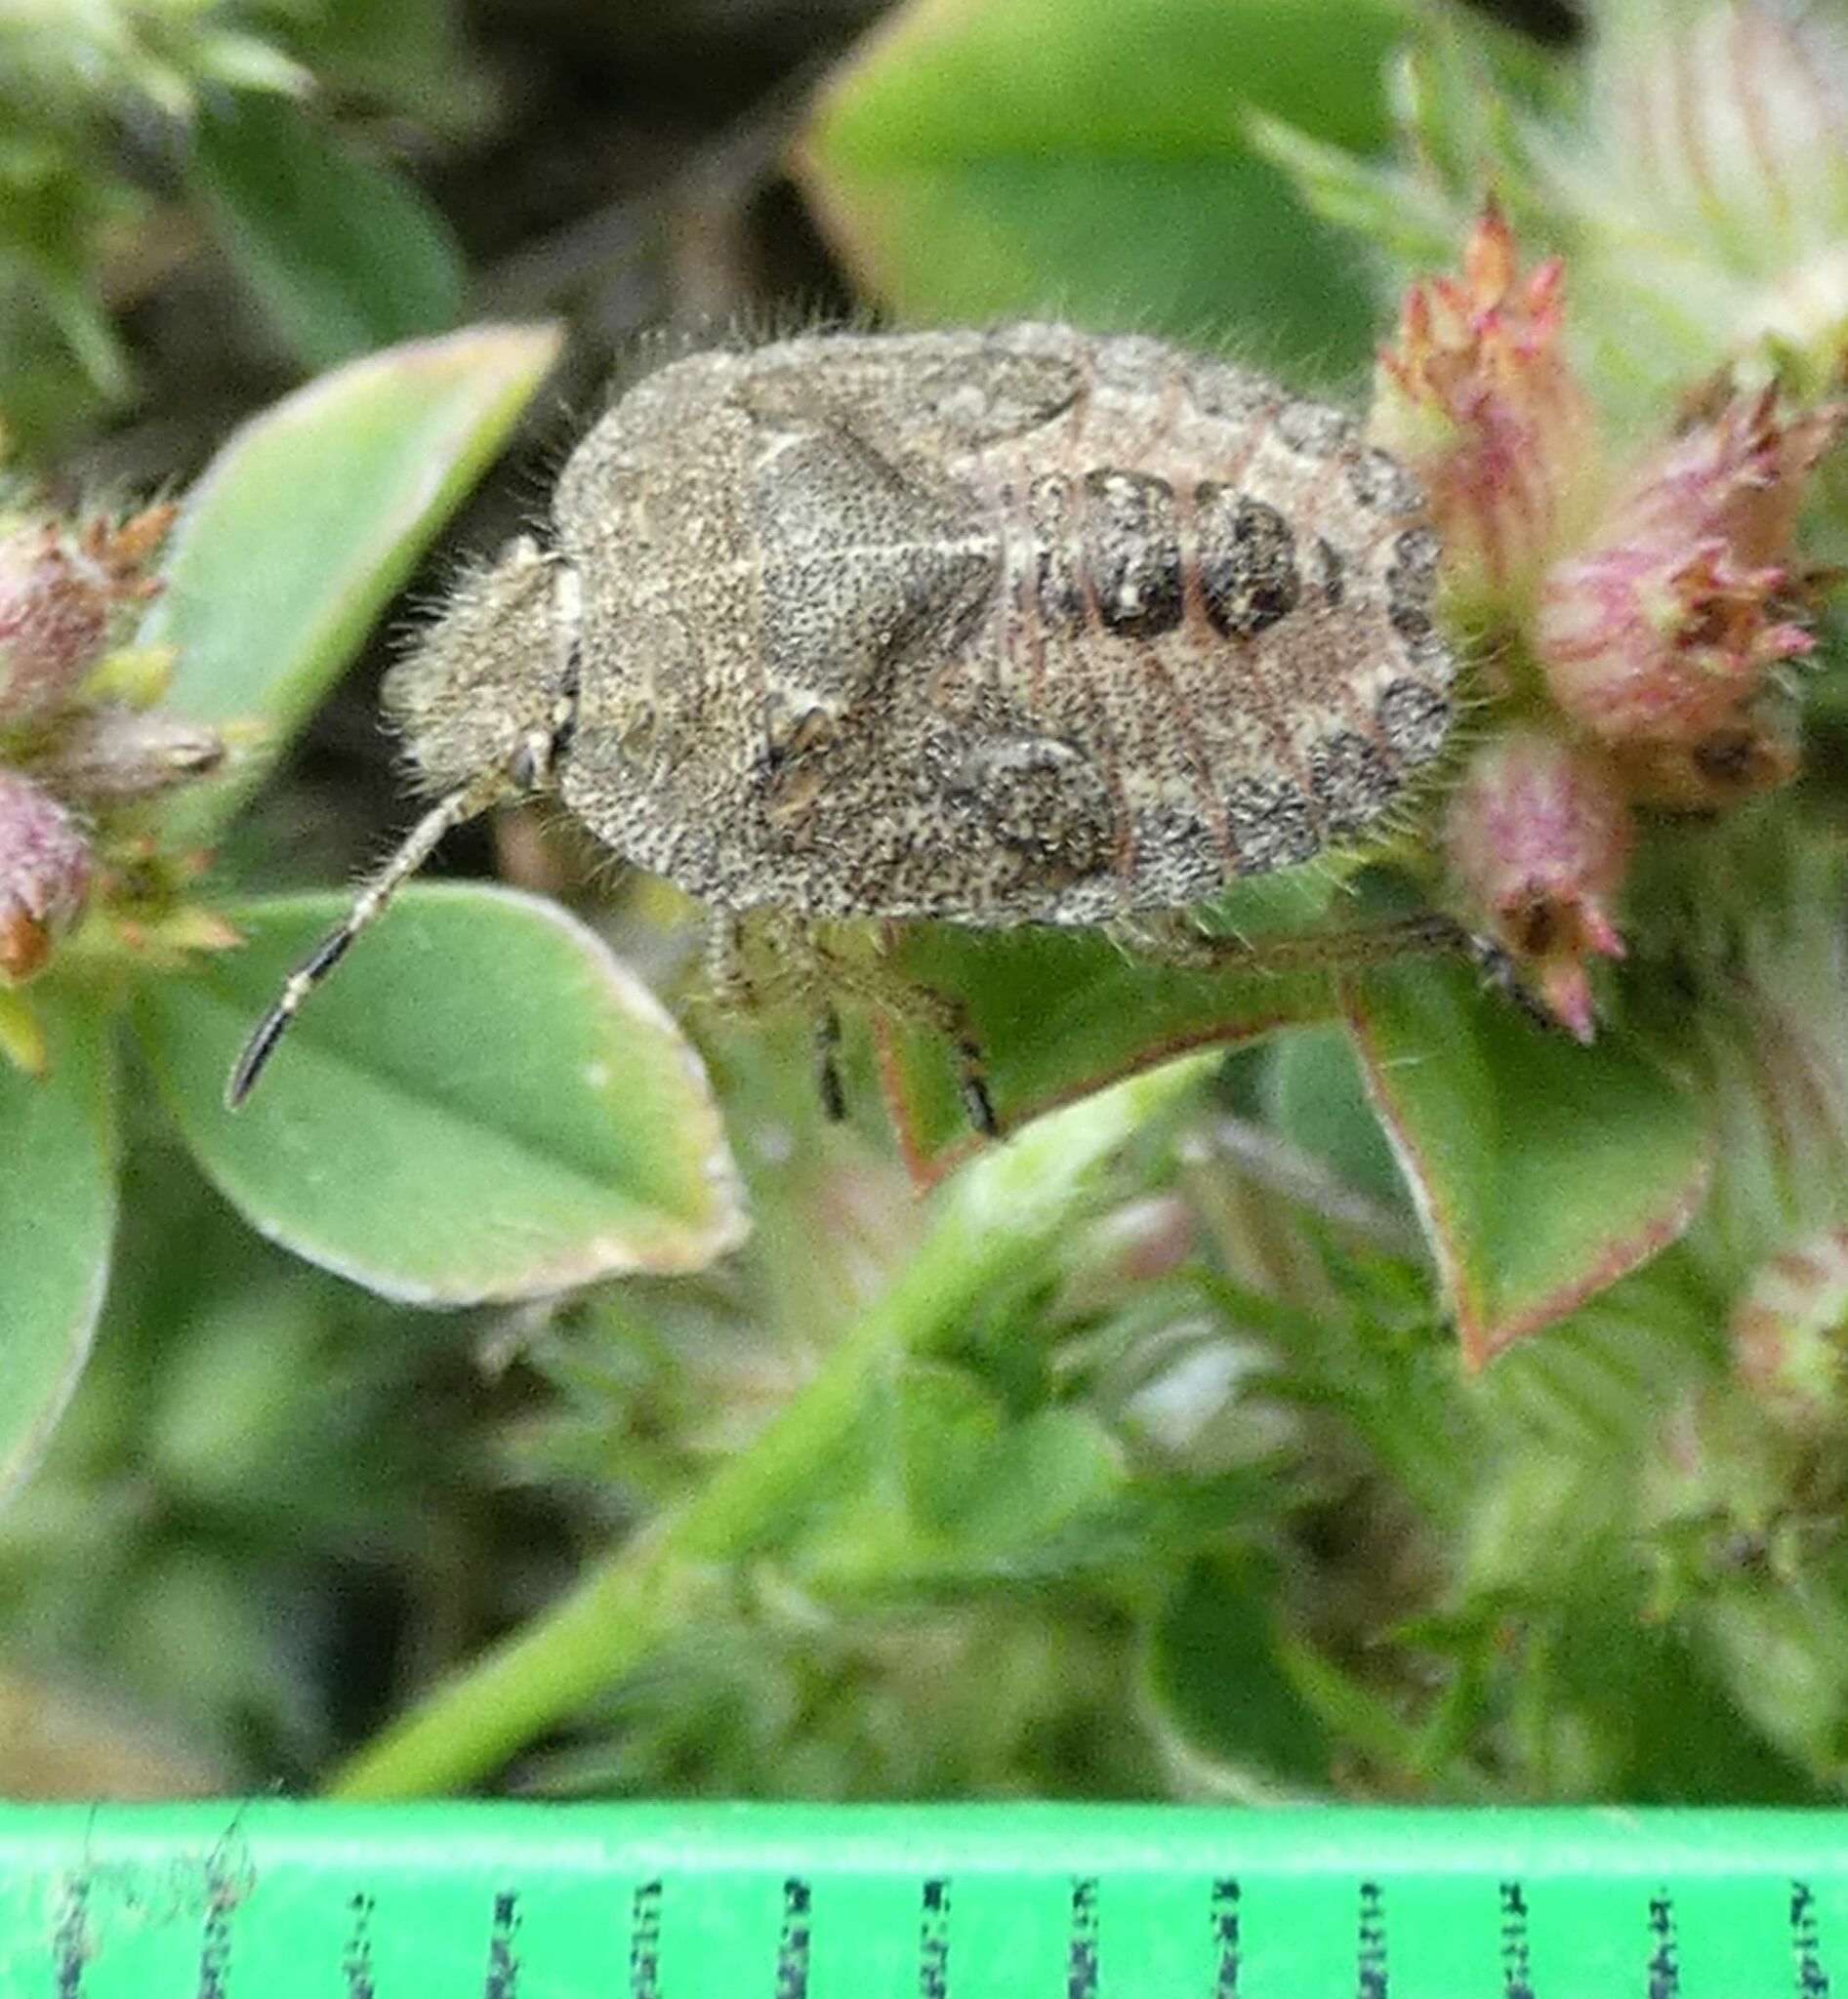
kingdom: Animalia
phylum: Arthropoda
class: Insecta
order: Hemiptera
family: Pentatomidae
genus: Dolycoris
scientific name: Dolycoris baccarum
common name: Sloe bug
